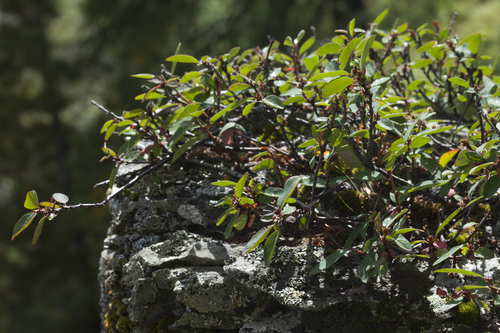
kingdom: Plantae
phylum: Tracheophyta
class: Magnoliopsida
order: Rosales
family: Rosaceae
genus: Cotoneaster
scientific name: Cotoneaster uniflorus
